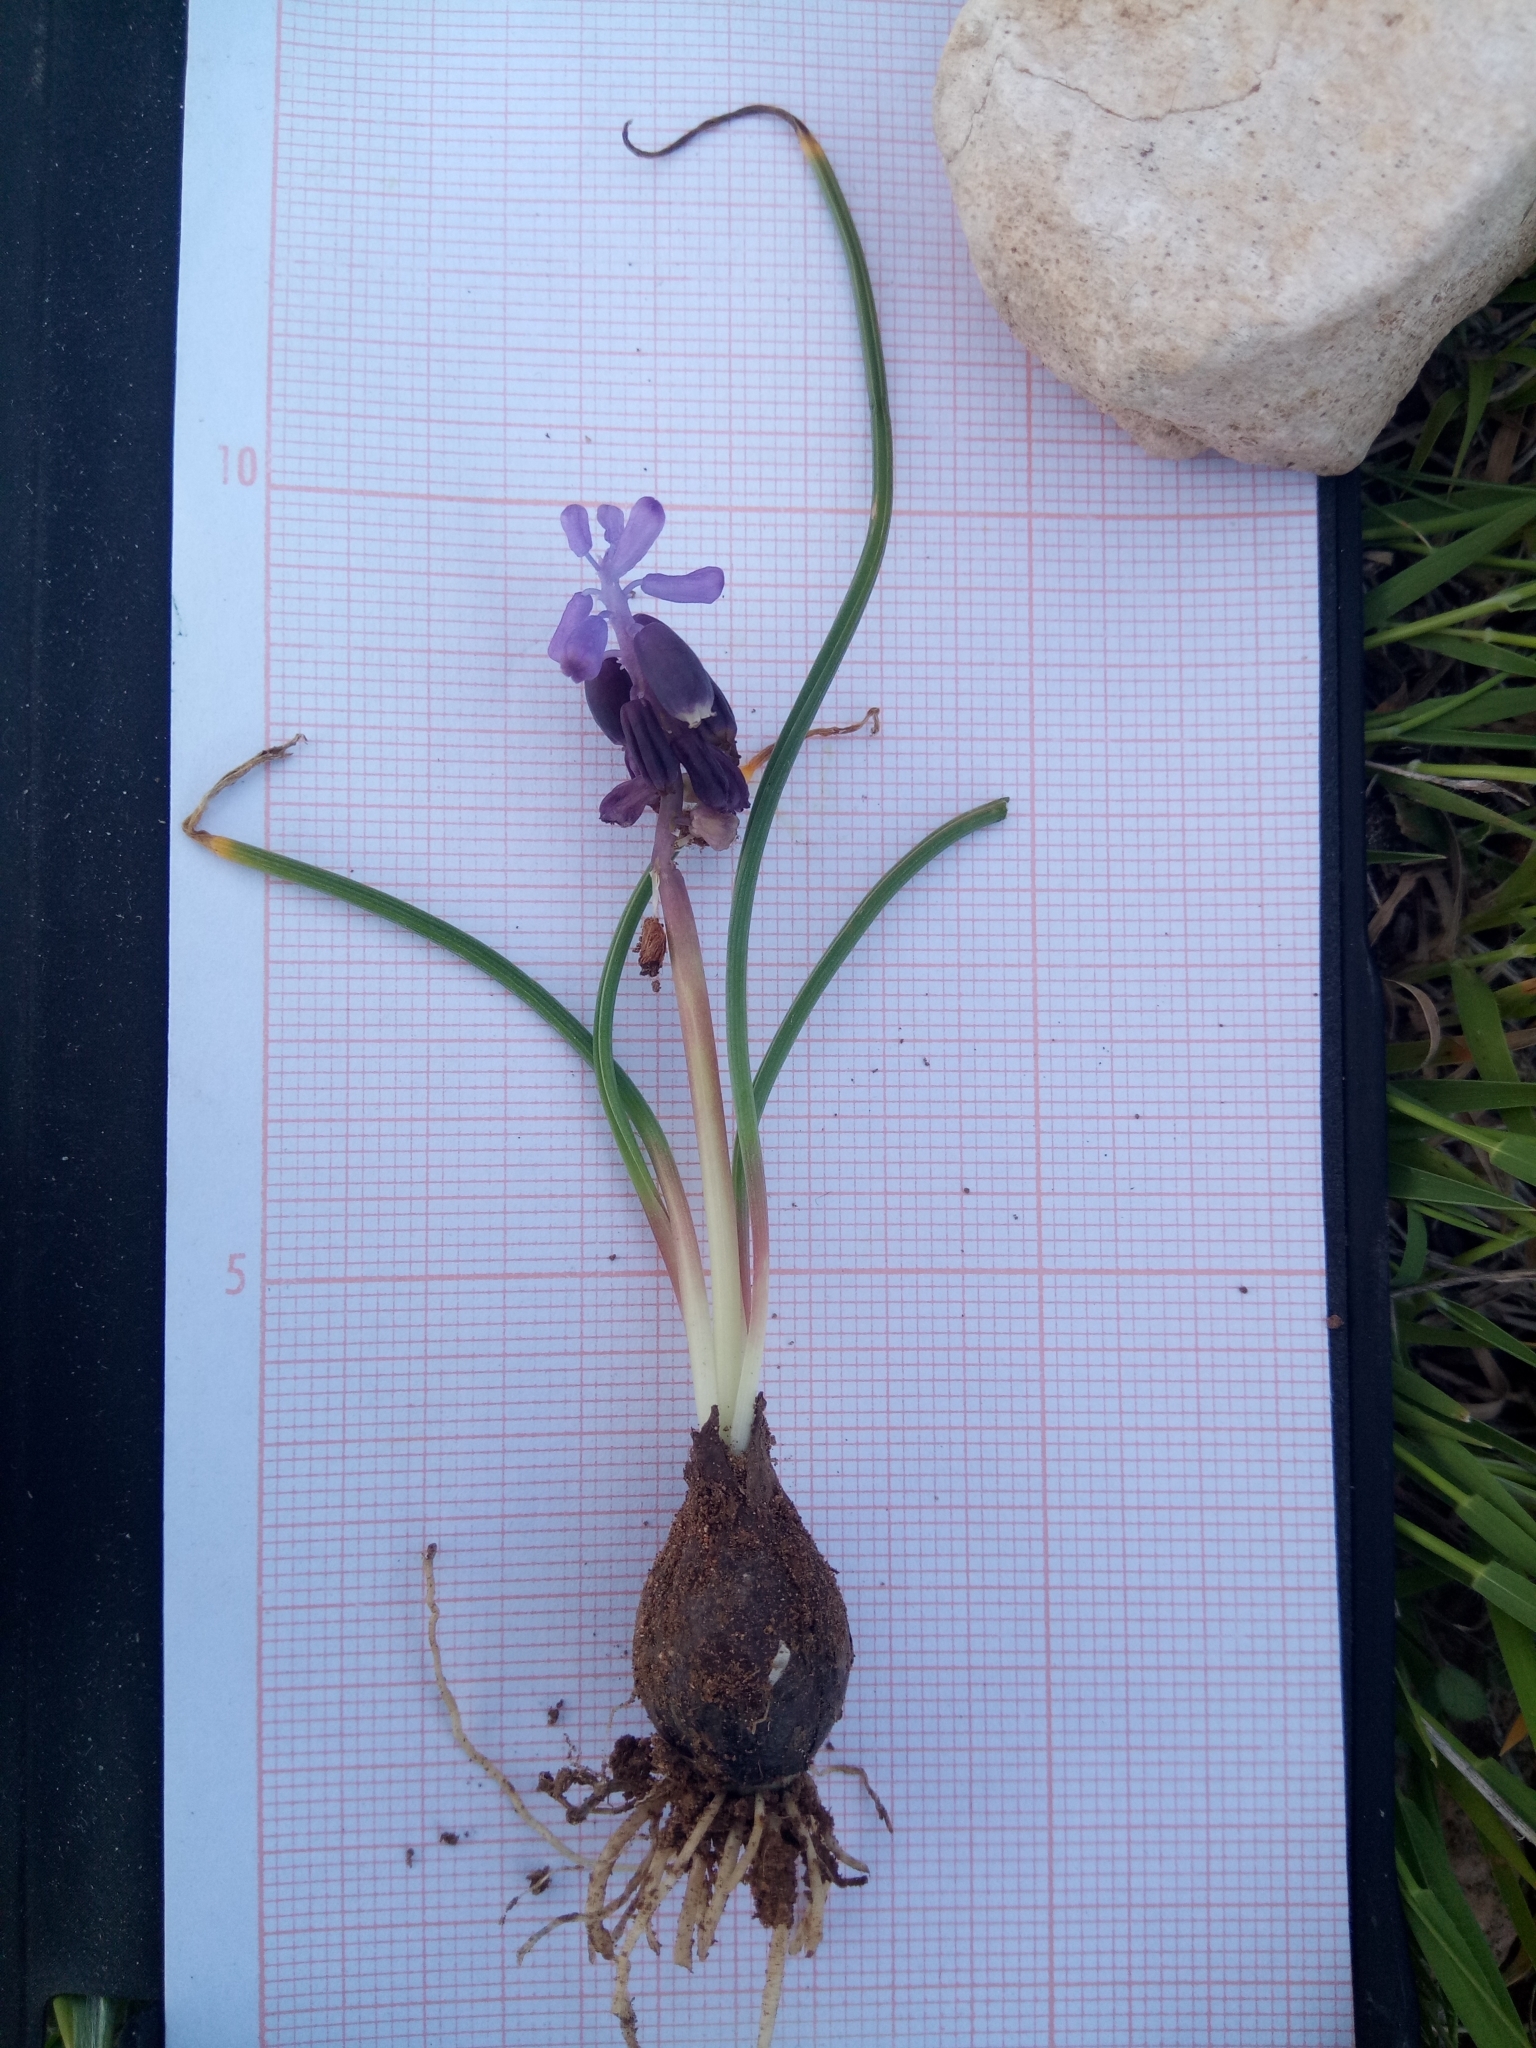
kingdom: Plantae
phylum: Tracheophyta
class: Liliopsida
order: Asparagales
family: Asparagaceae
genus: Muscari
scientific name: Muscari baeticum
